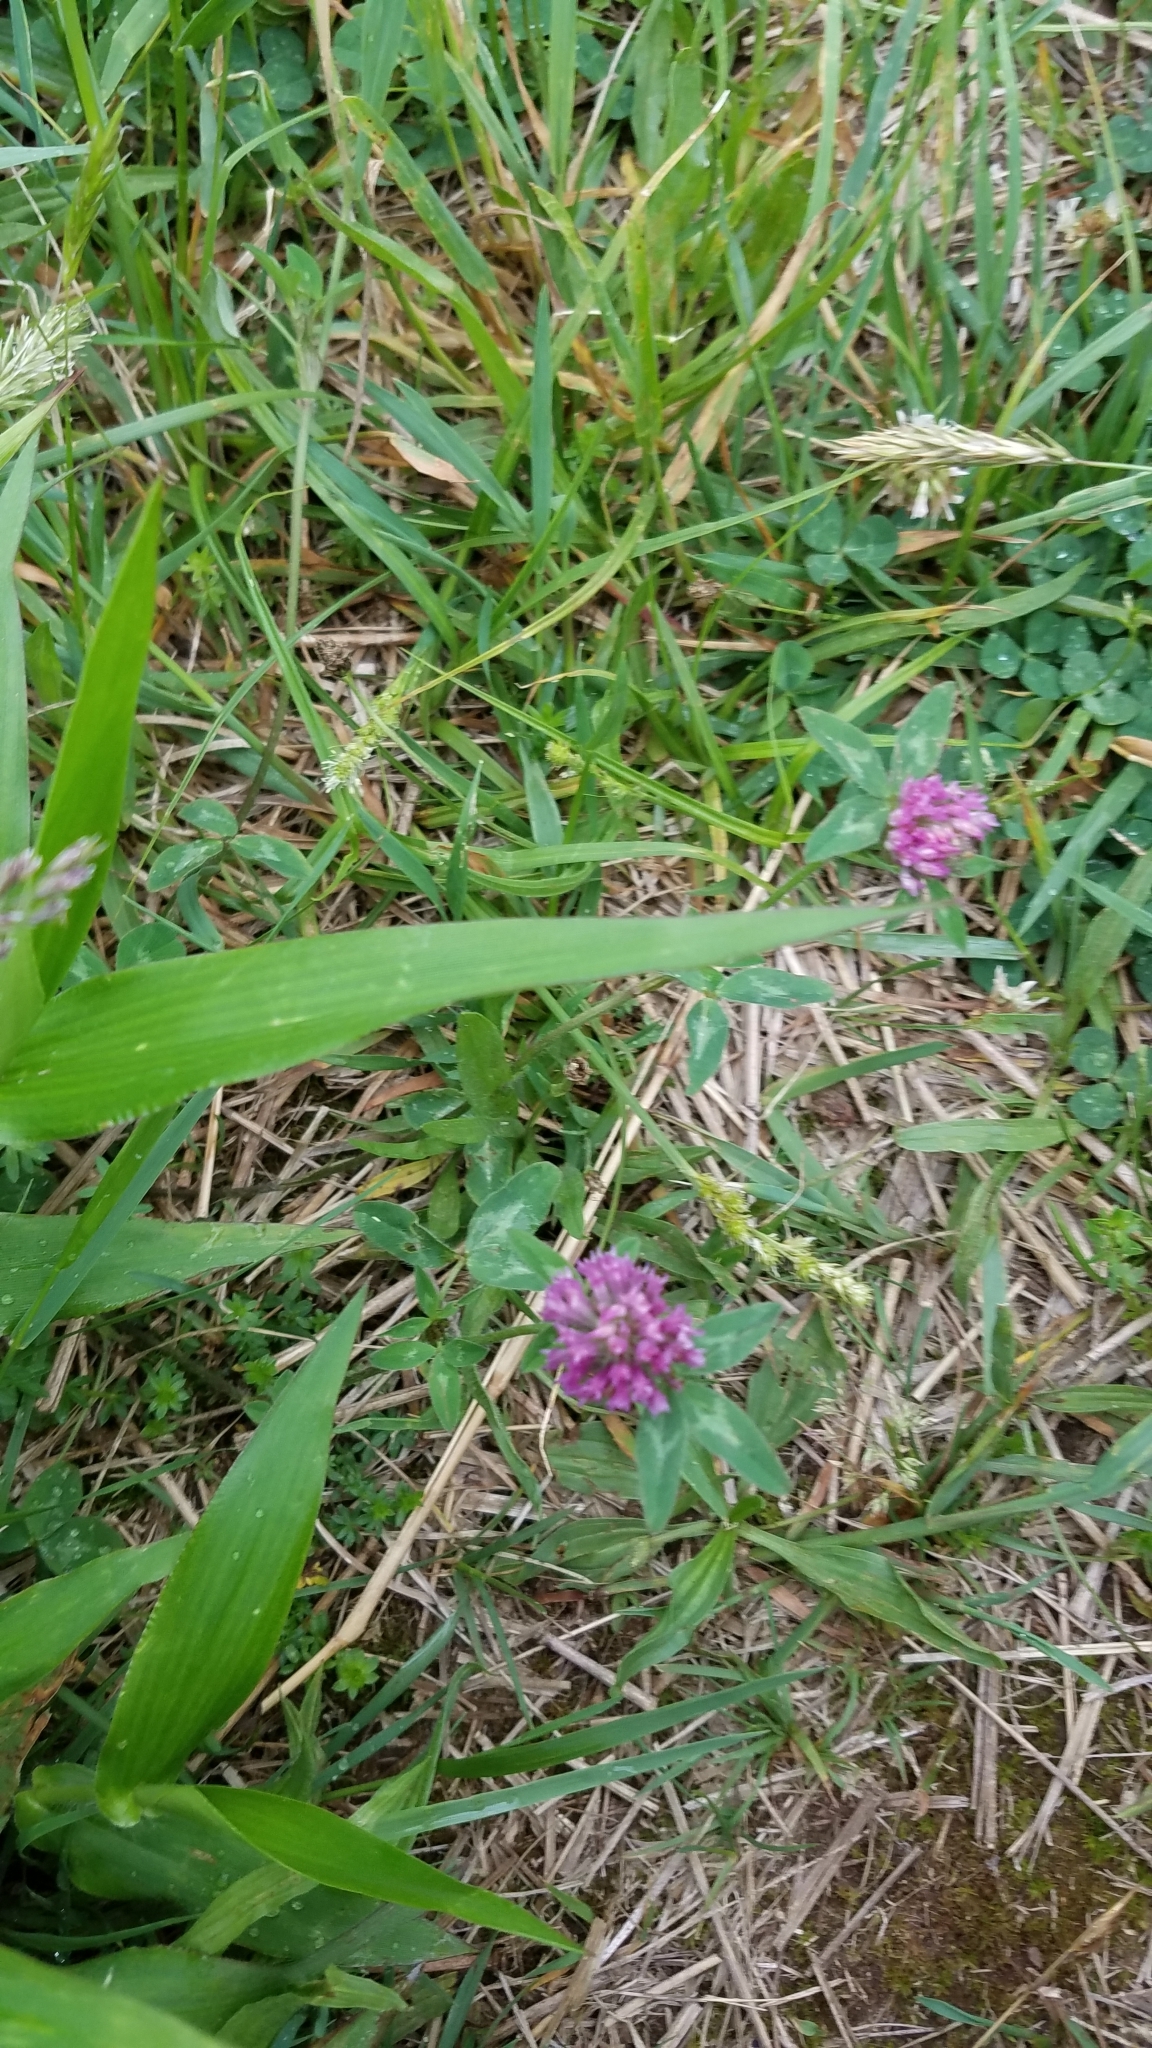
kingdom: Plantae
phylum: Tracheophyta
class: Magnoliopsida
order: Fabales
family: Fabaceae
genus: Trifolium
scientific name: Trifolium pratense
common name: Red clover
